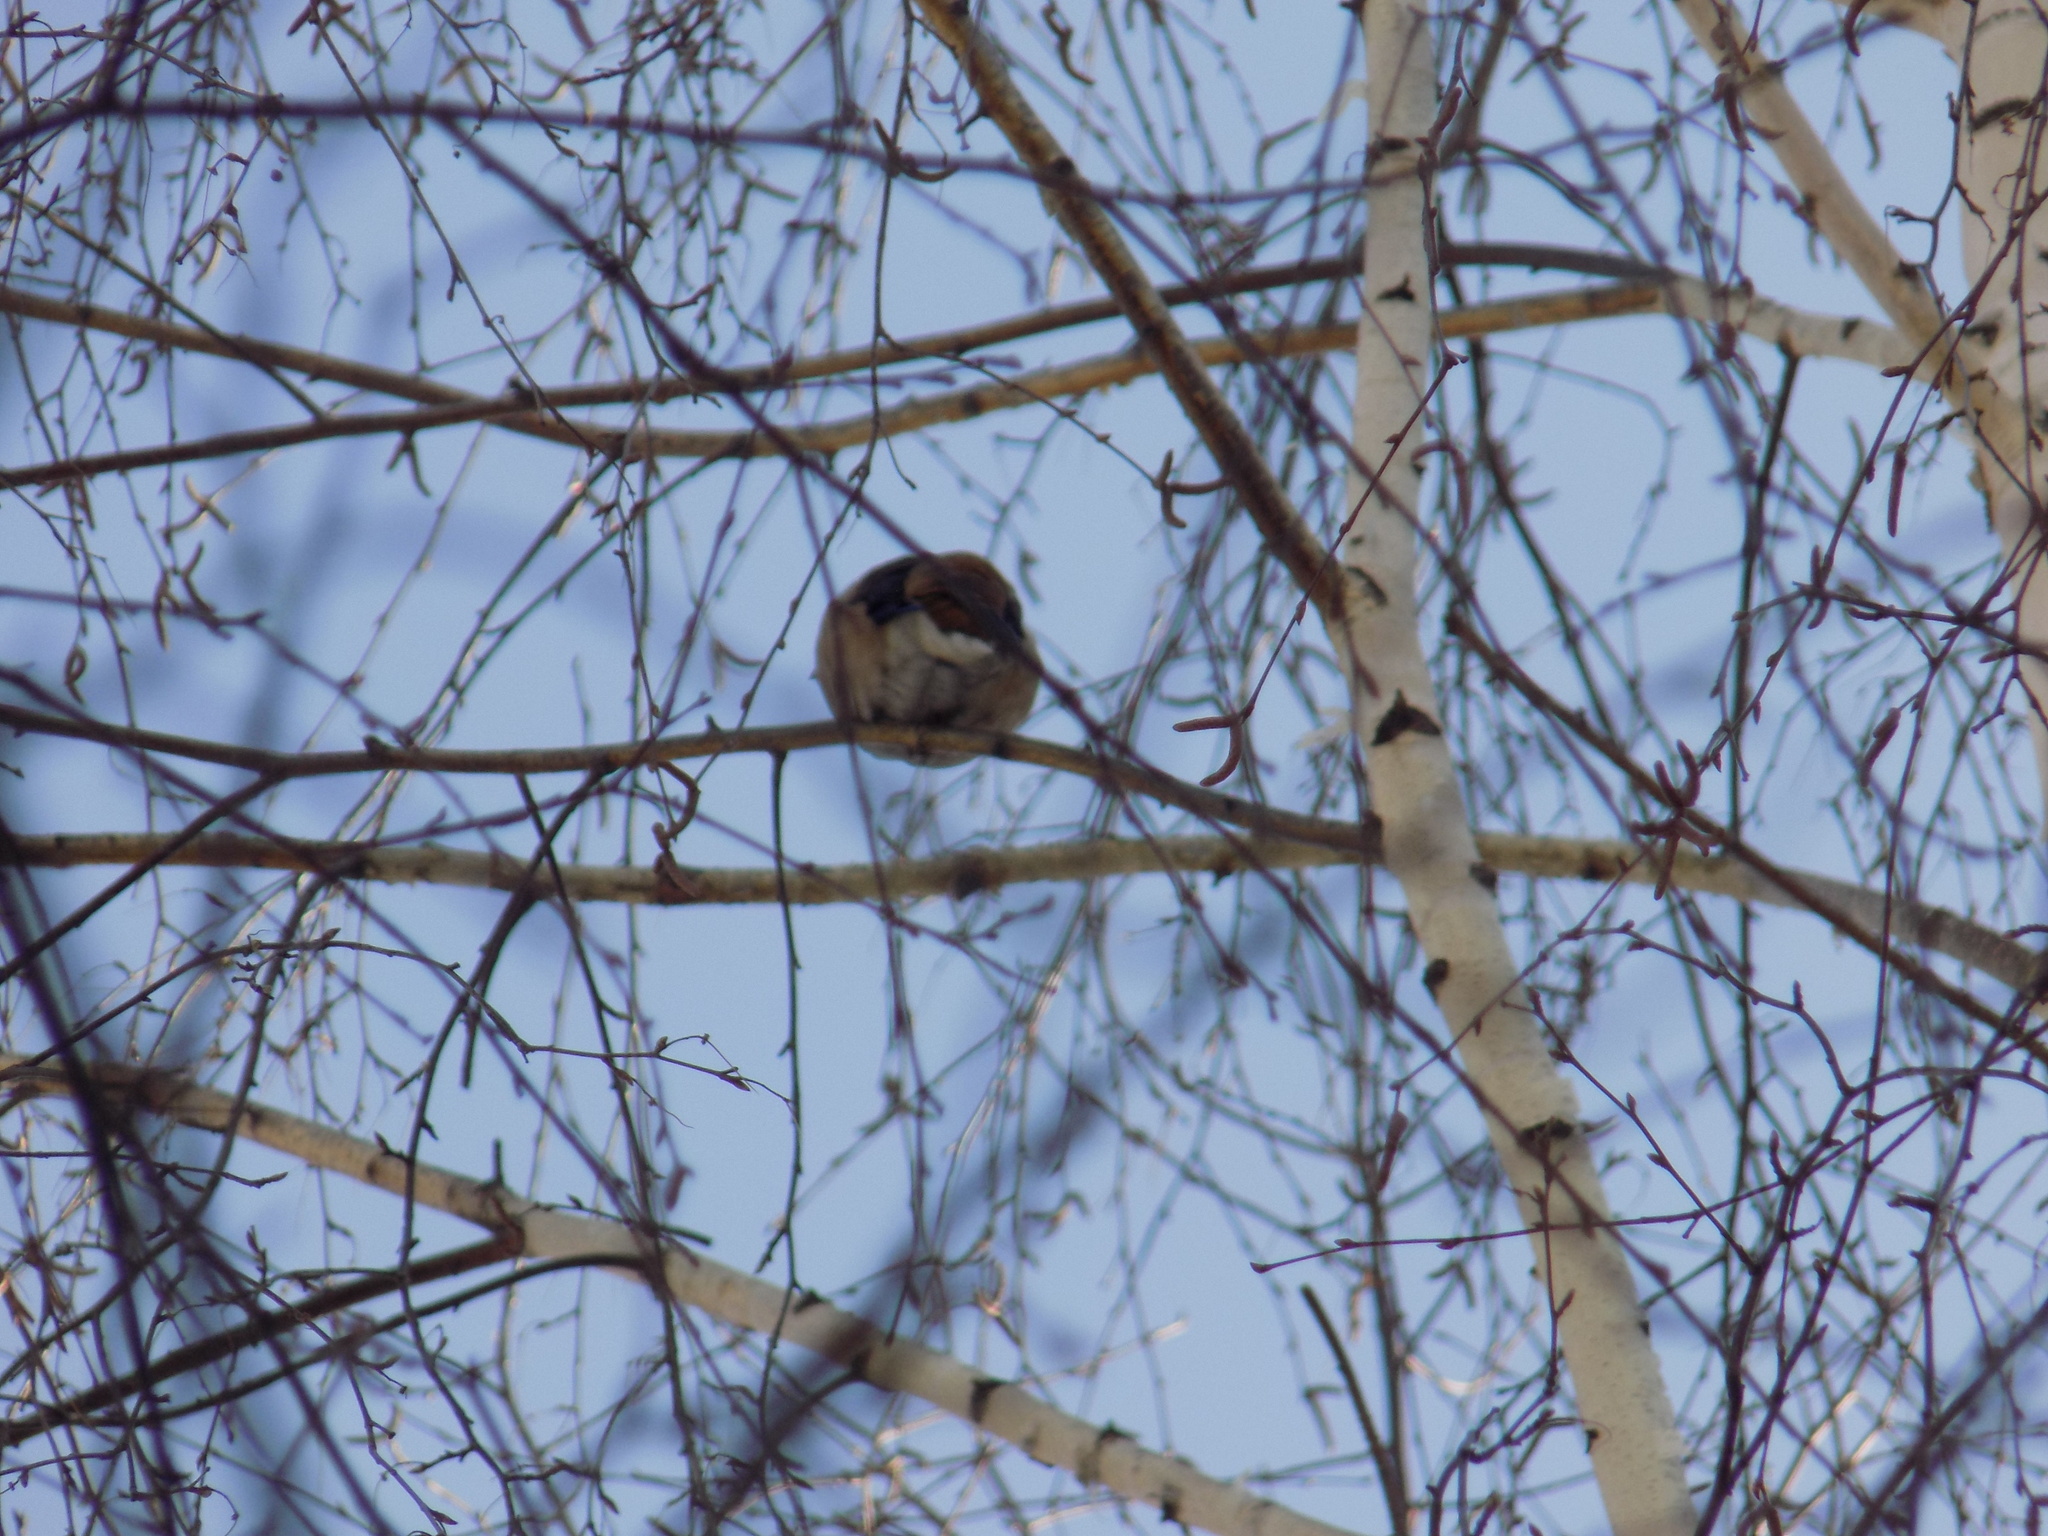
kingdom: Animalia
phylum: Chordata
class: Aves
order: Passeriformes
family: Fringillidae
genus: Coccothraustes
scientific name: Coccothraustes coccothraustes
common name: Hawfinch
